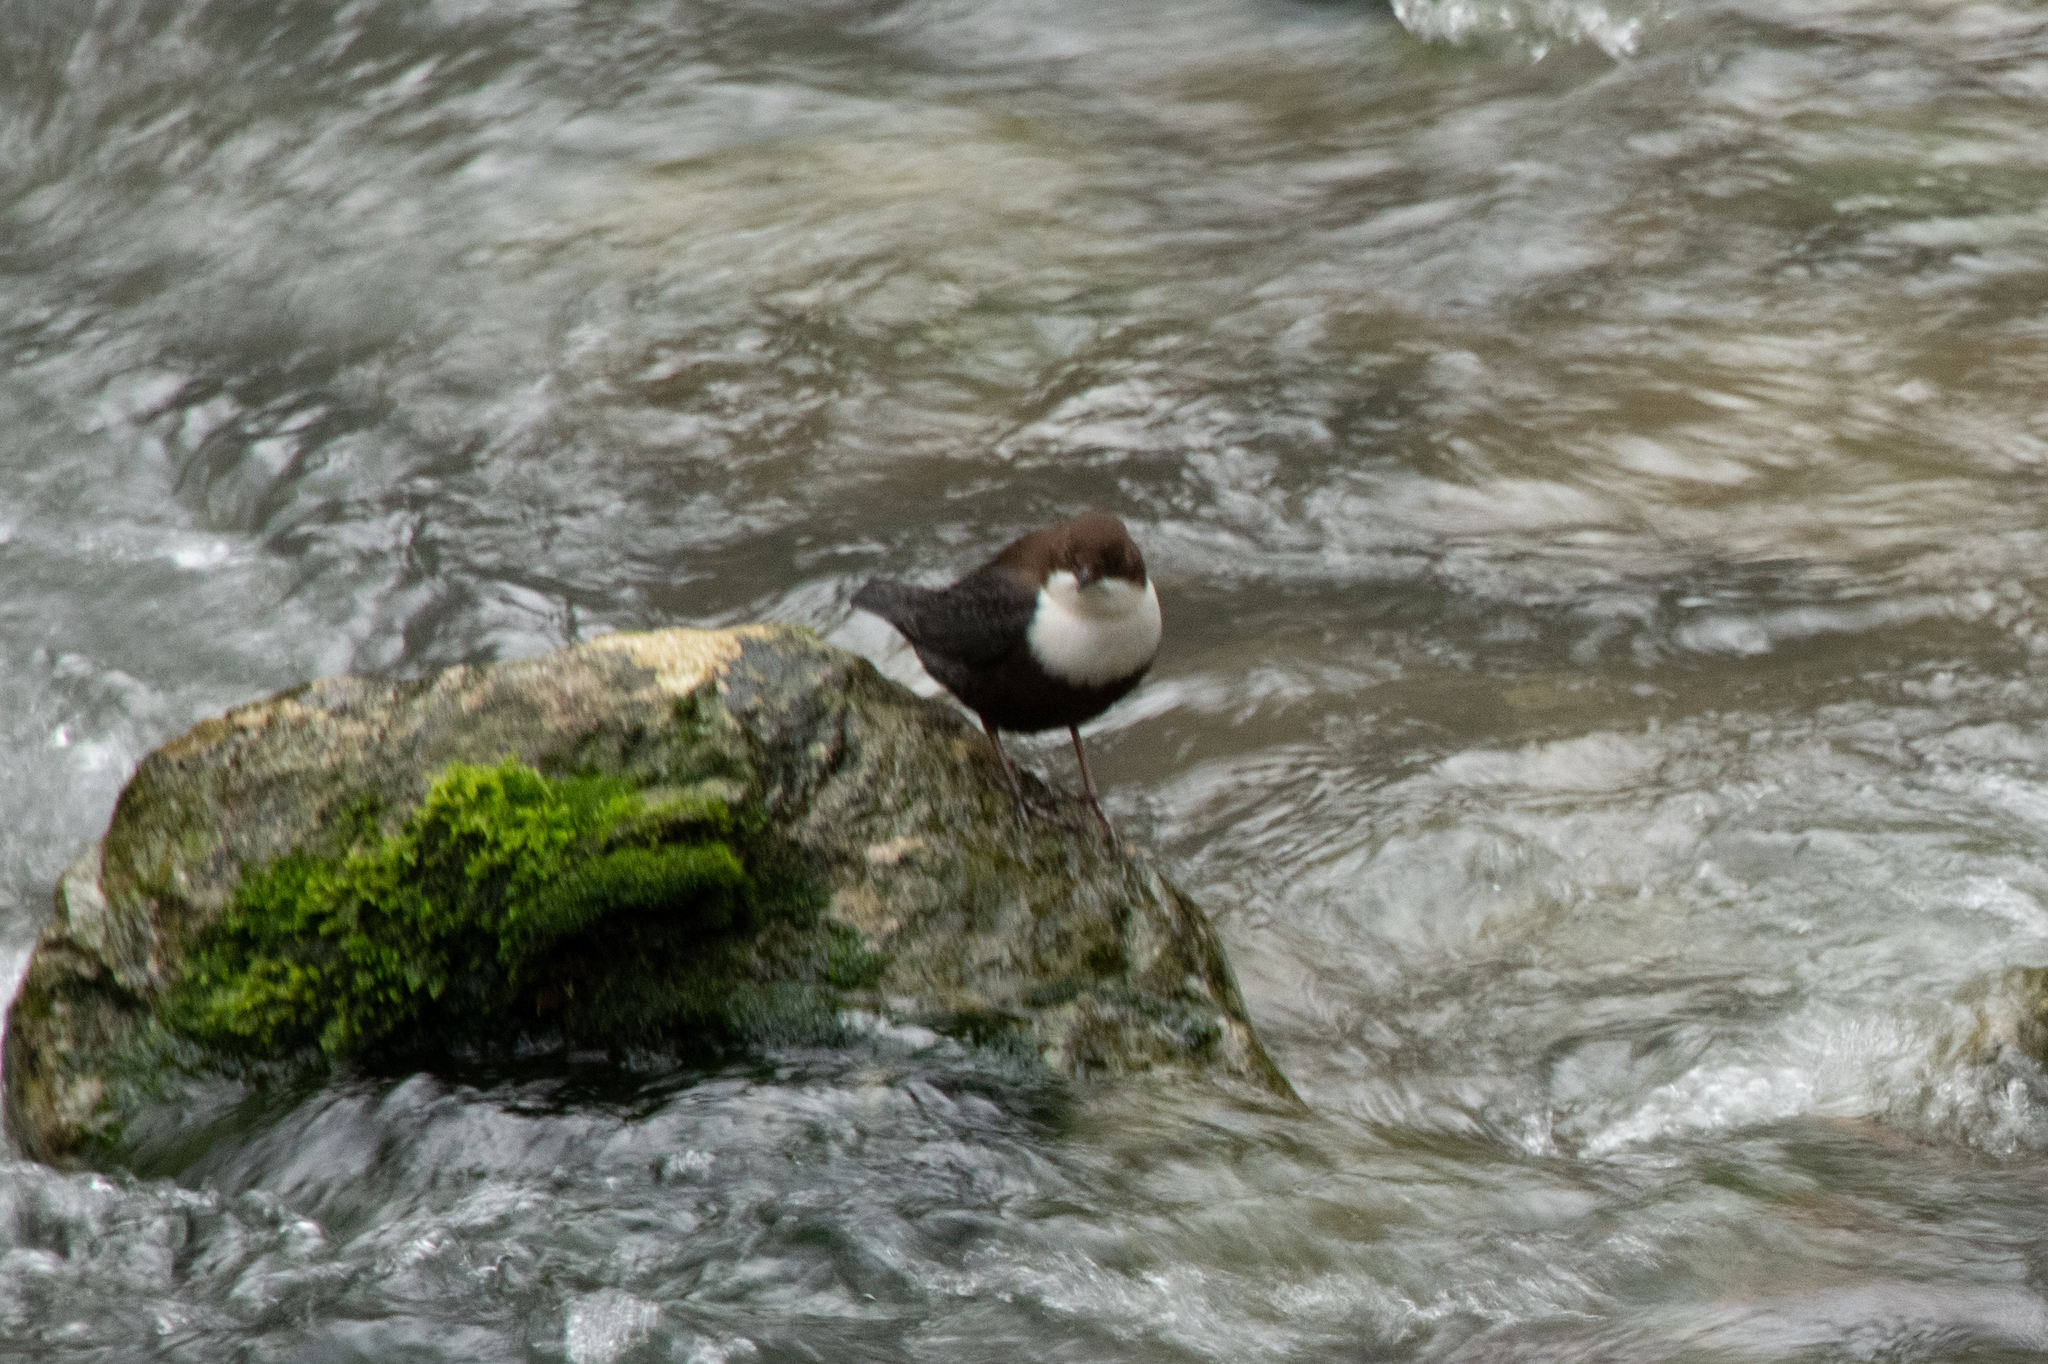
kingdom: Animalia
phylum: Chordata
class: Aves
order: Passeriformes
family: Cinclidae
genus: Cinclus
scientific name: Cinclus cinclus
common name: White-throated dipper
